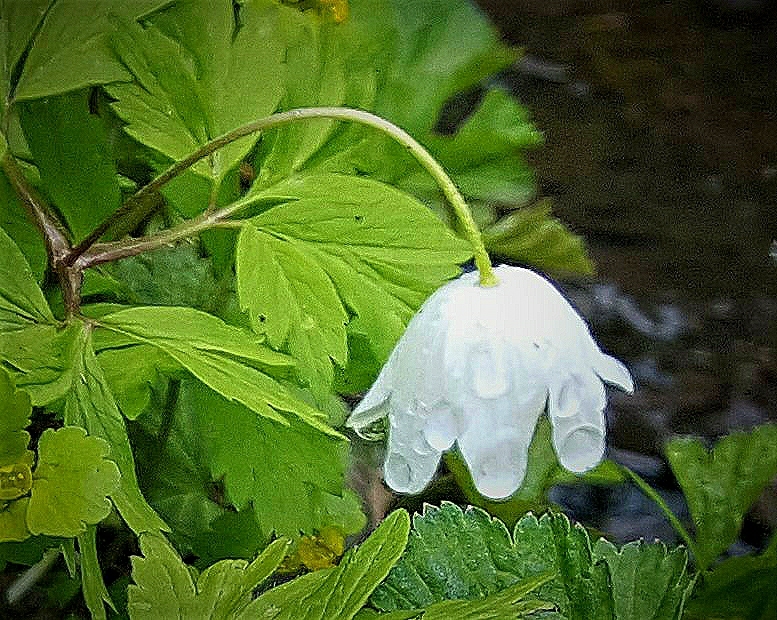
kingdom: Plantae
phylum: Tracheophyta
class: Magnoliopsida
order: Ranunculales
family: Ranunculaceae
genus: Anemone
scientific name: Anemone nemorosa
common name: Wood anemone
